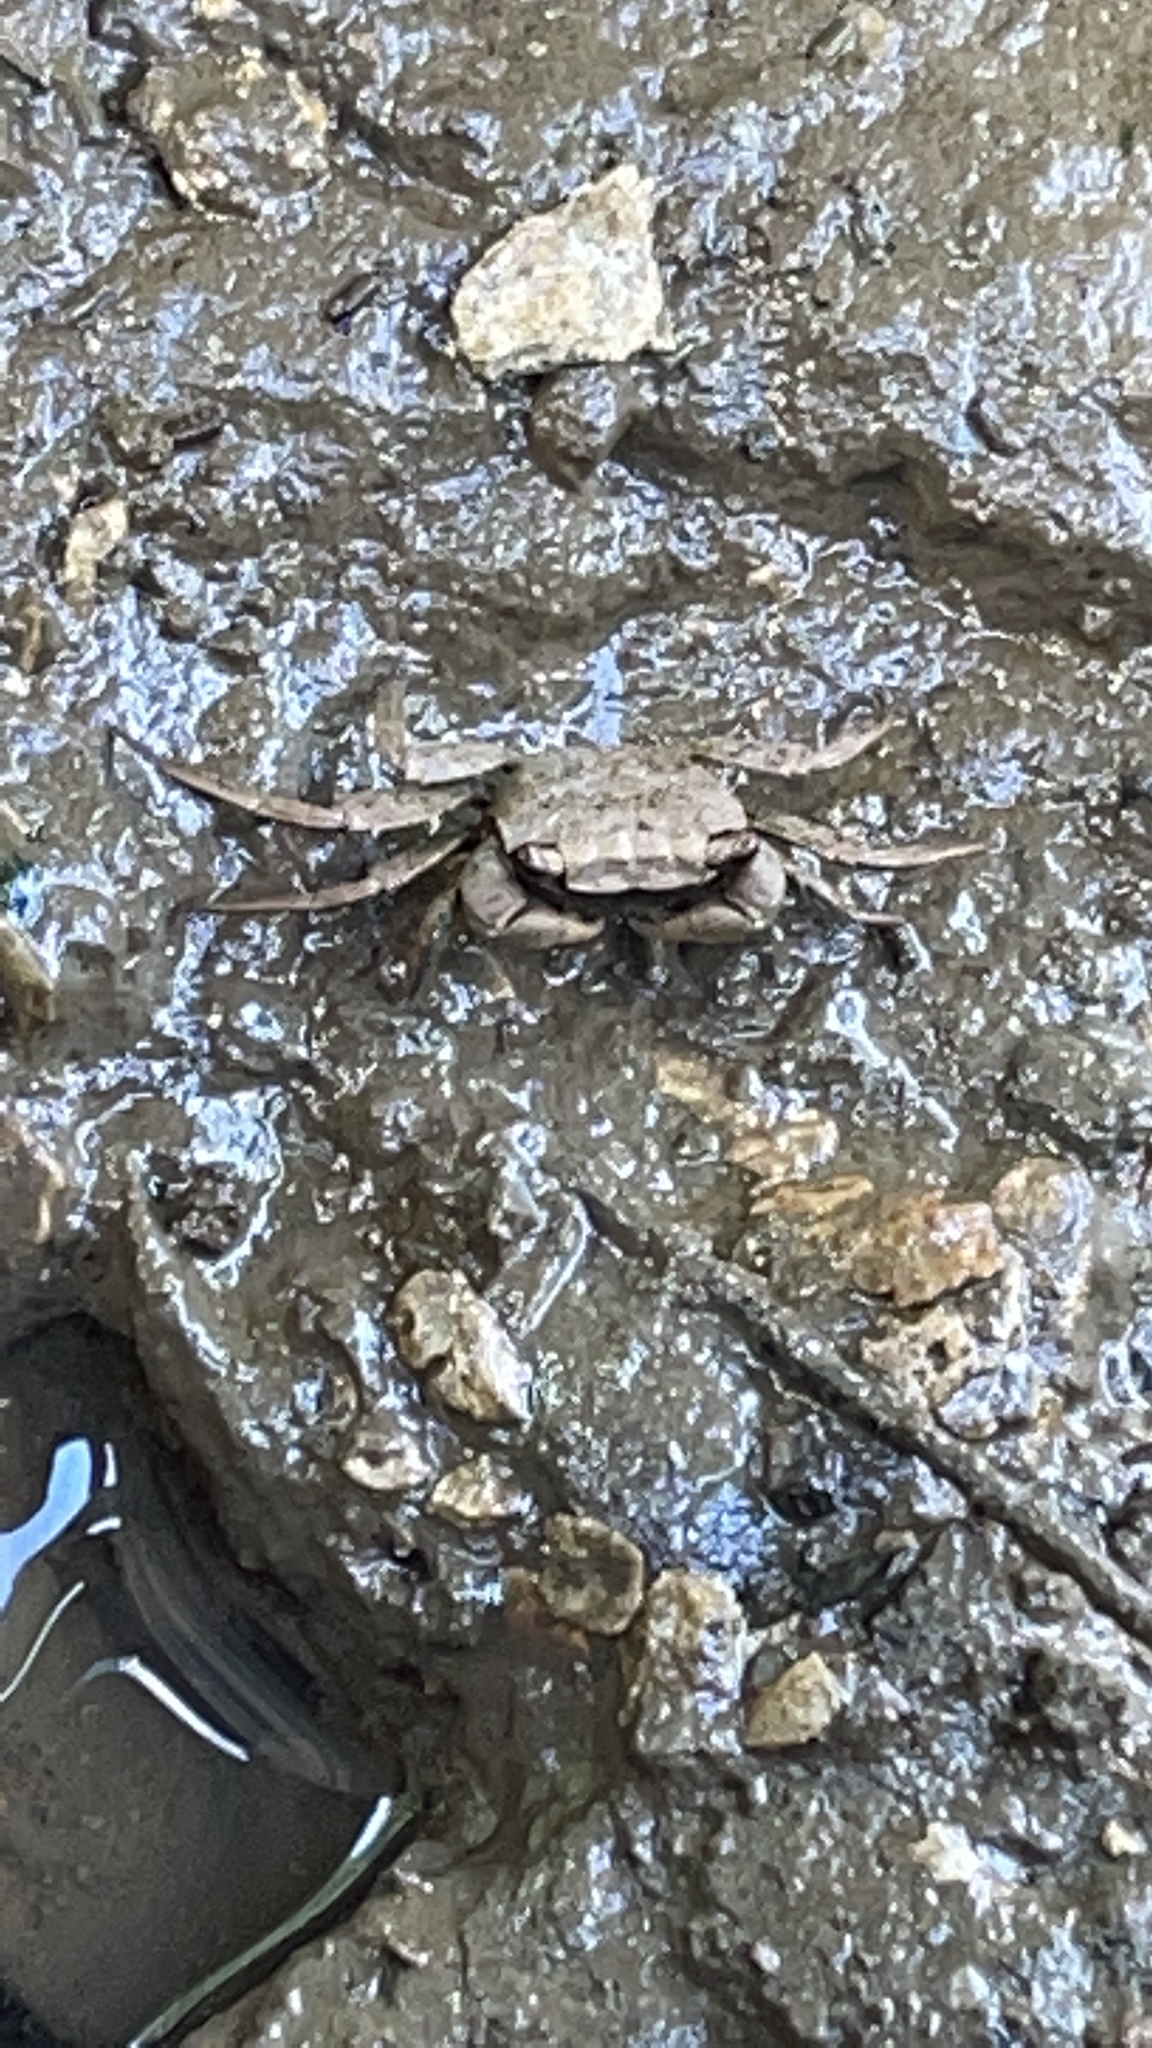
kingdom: Animalia
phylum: Arthropoda
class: Malacostraca
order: Decapoda
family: Sesarmidae
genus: Armases
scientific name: Armases cinereum
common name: Squareback marsh crab
